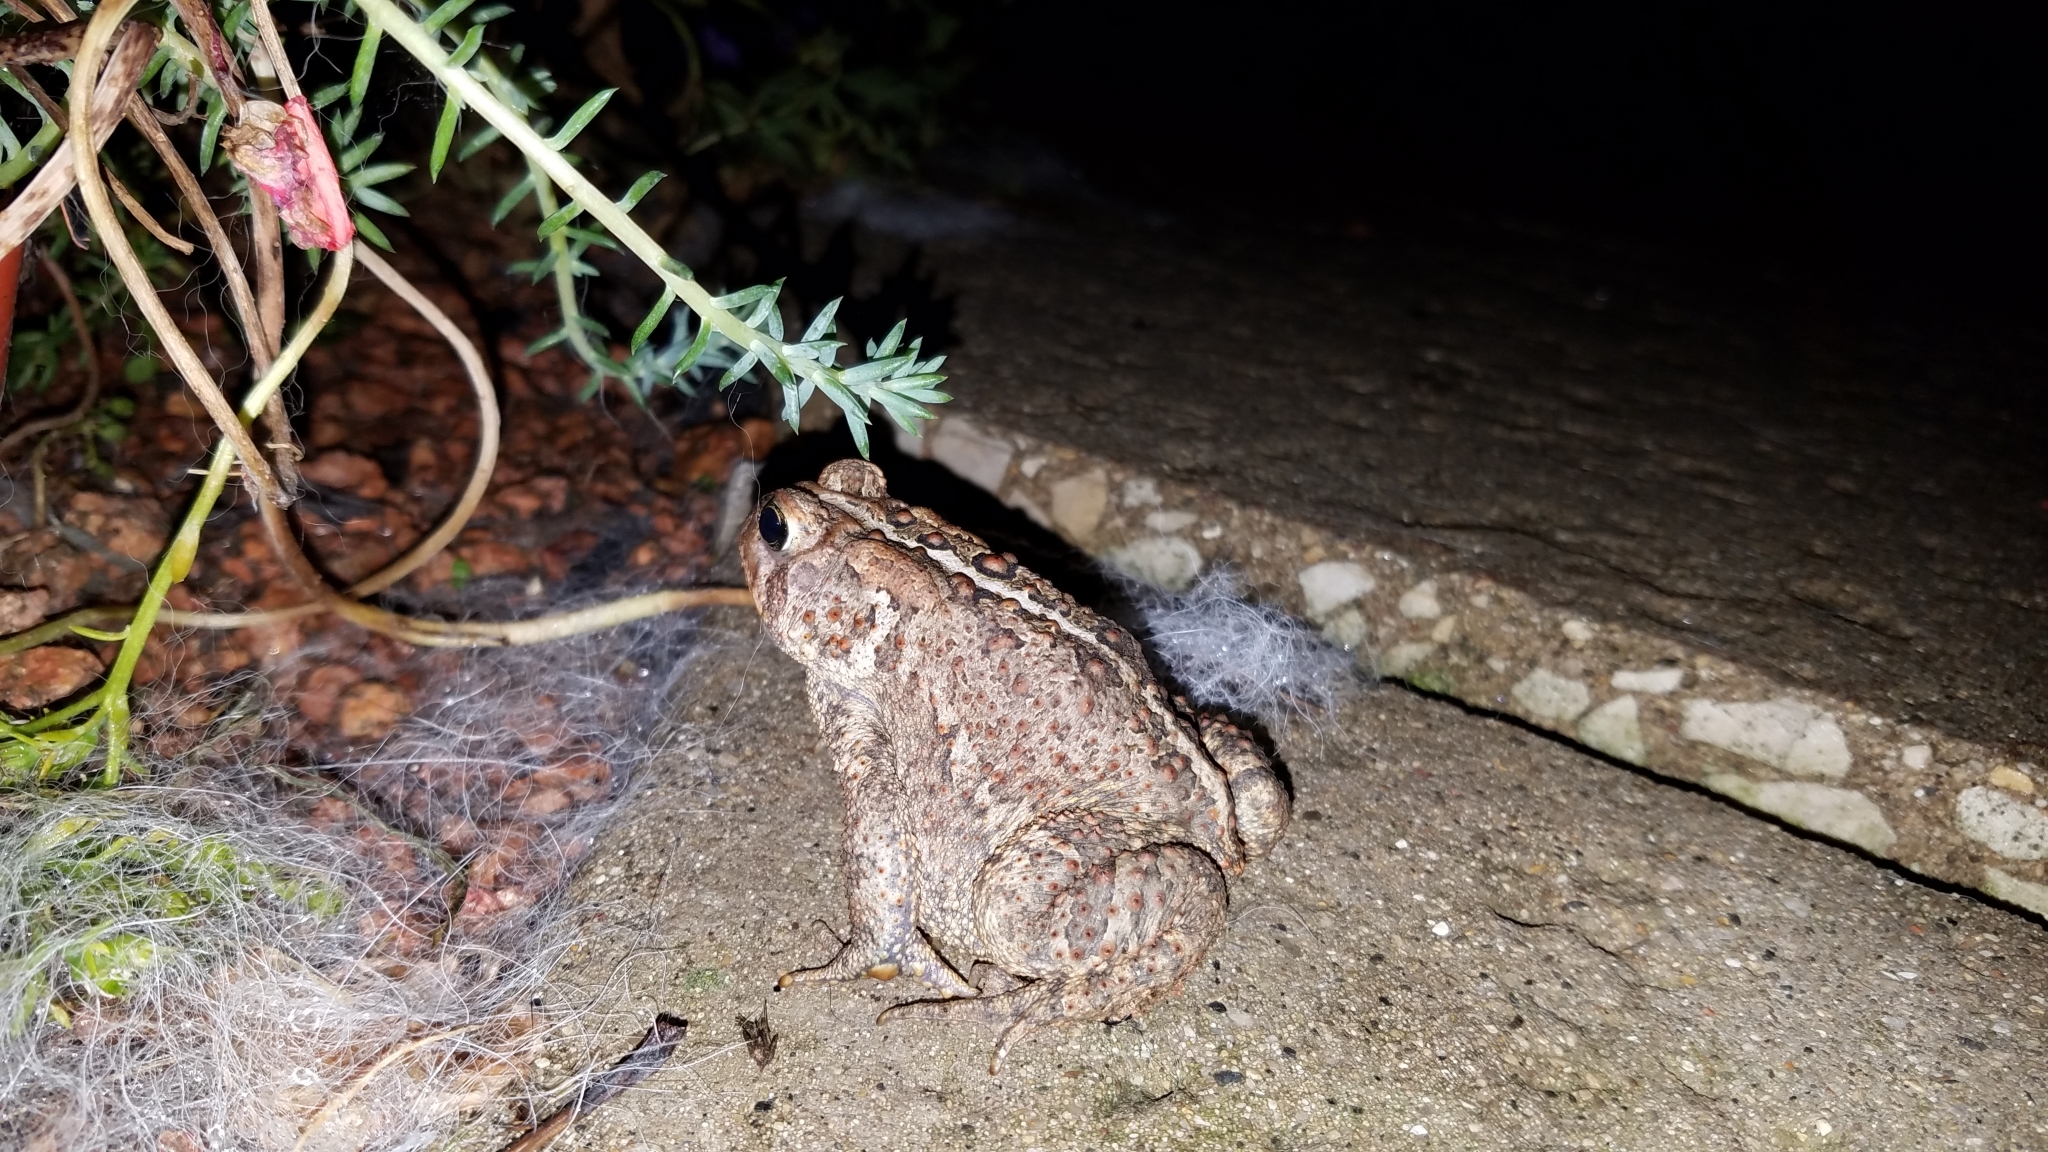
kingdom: Animalia
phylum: Chordata
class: Amphibia
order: Anura
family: Bufonidae
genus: Anaxyrus
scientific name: Anaxyrus americanus
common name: American toad
